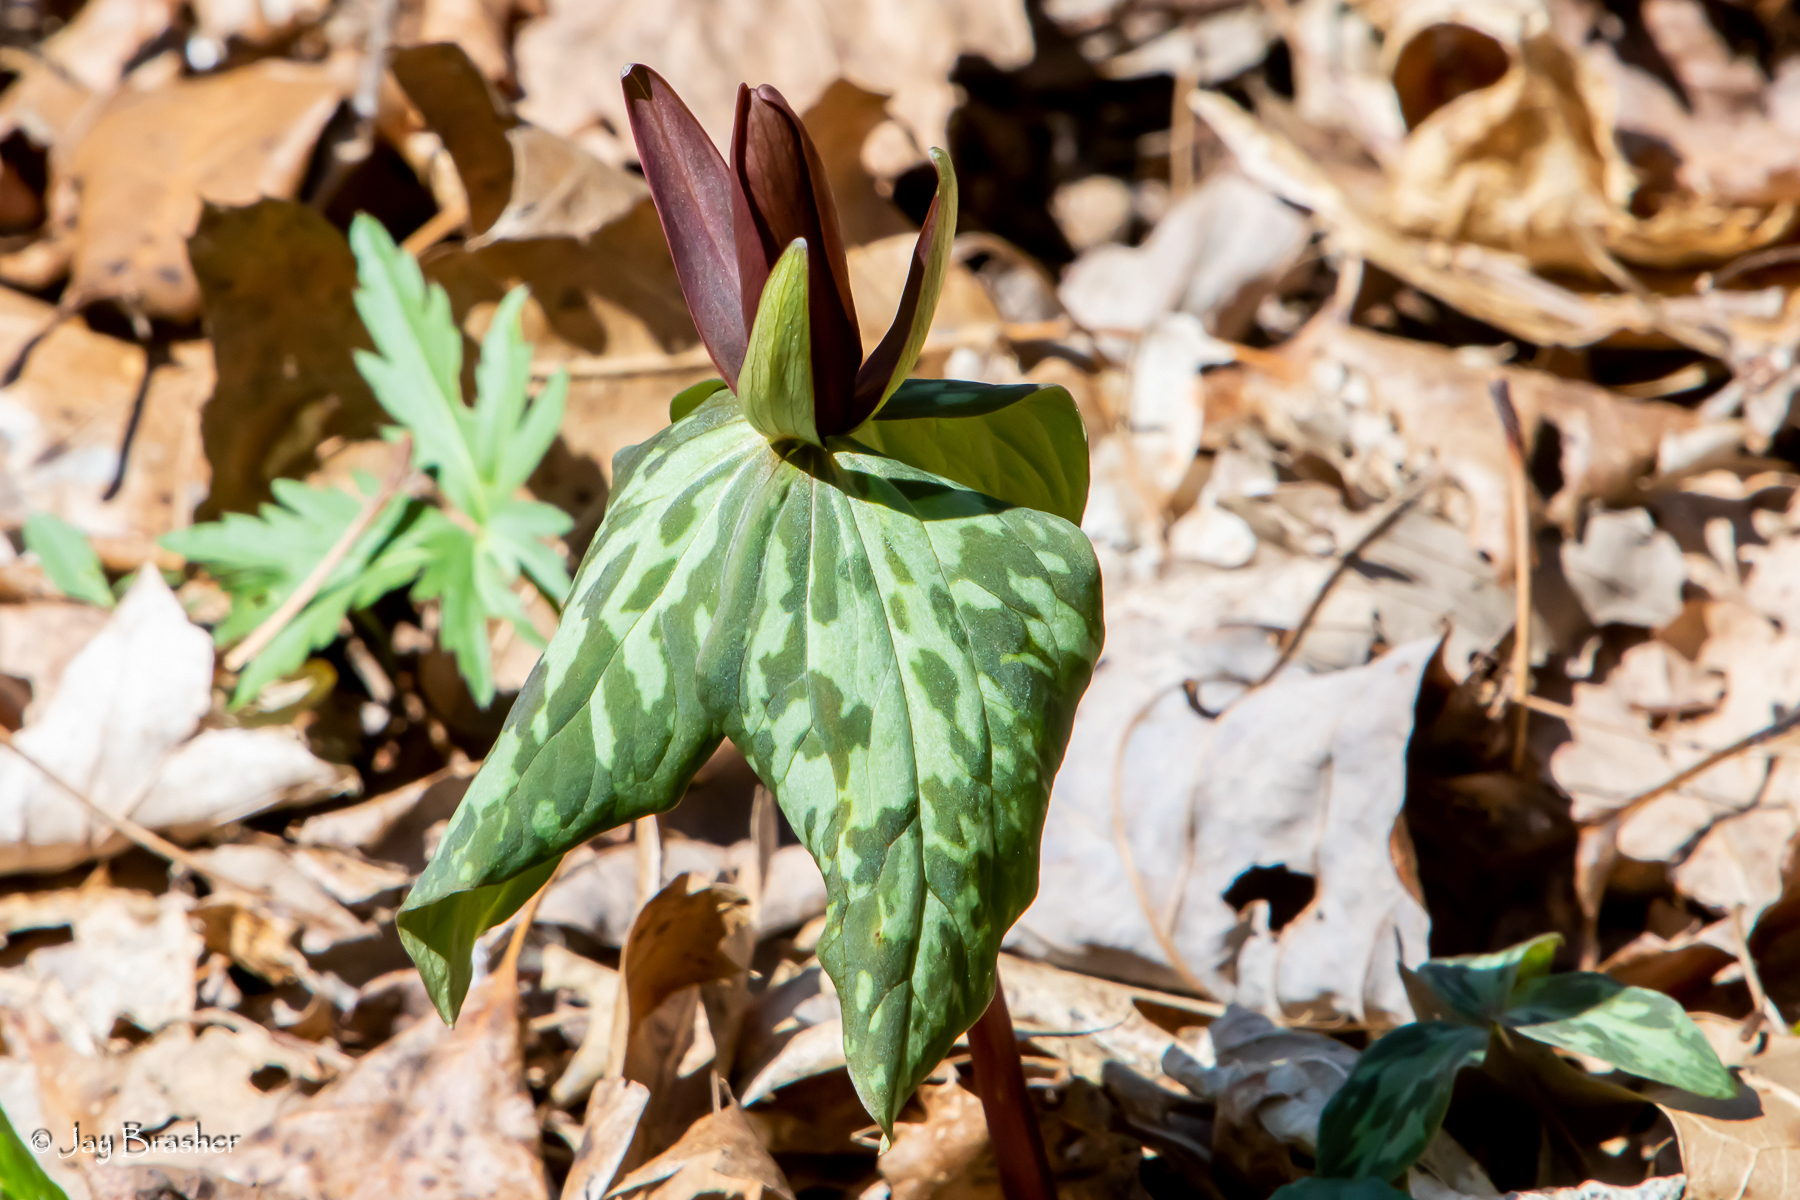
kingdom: Plantae
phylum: Tracheophyta
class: Liliopsida
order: Liliales
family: Melanthiaceae
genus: Trillium
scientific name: Trillium cuneatum
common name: Cuneate trillium
